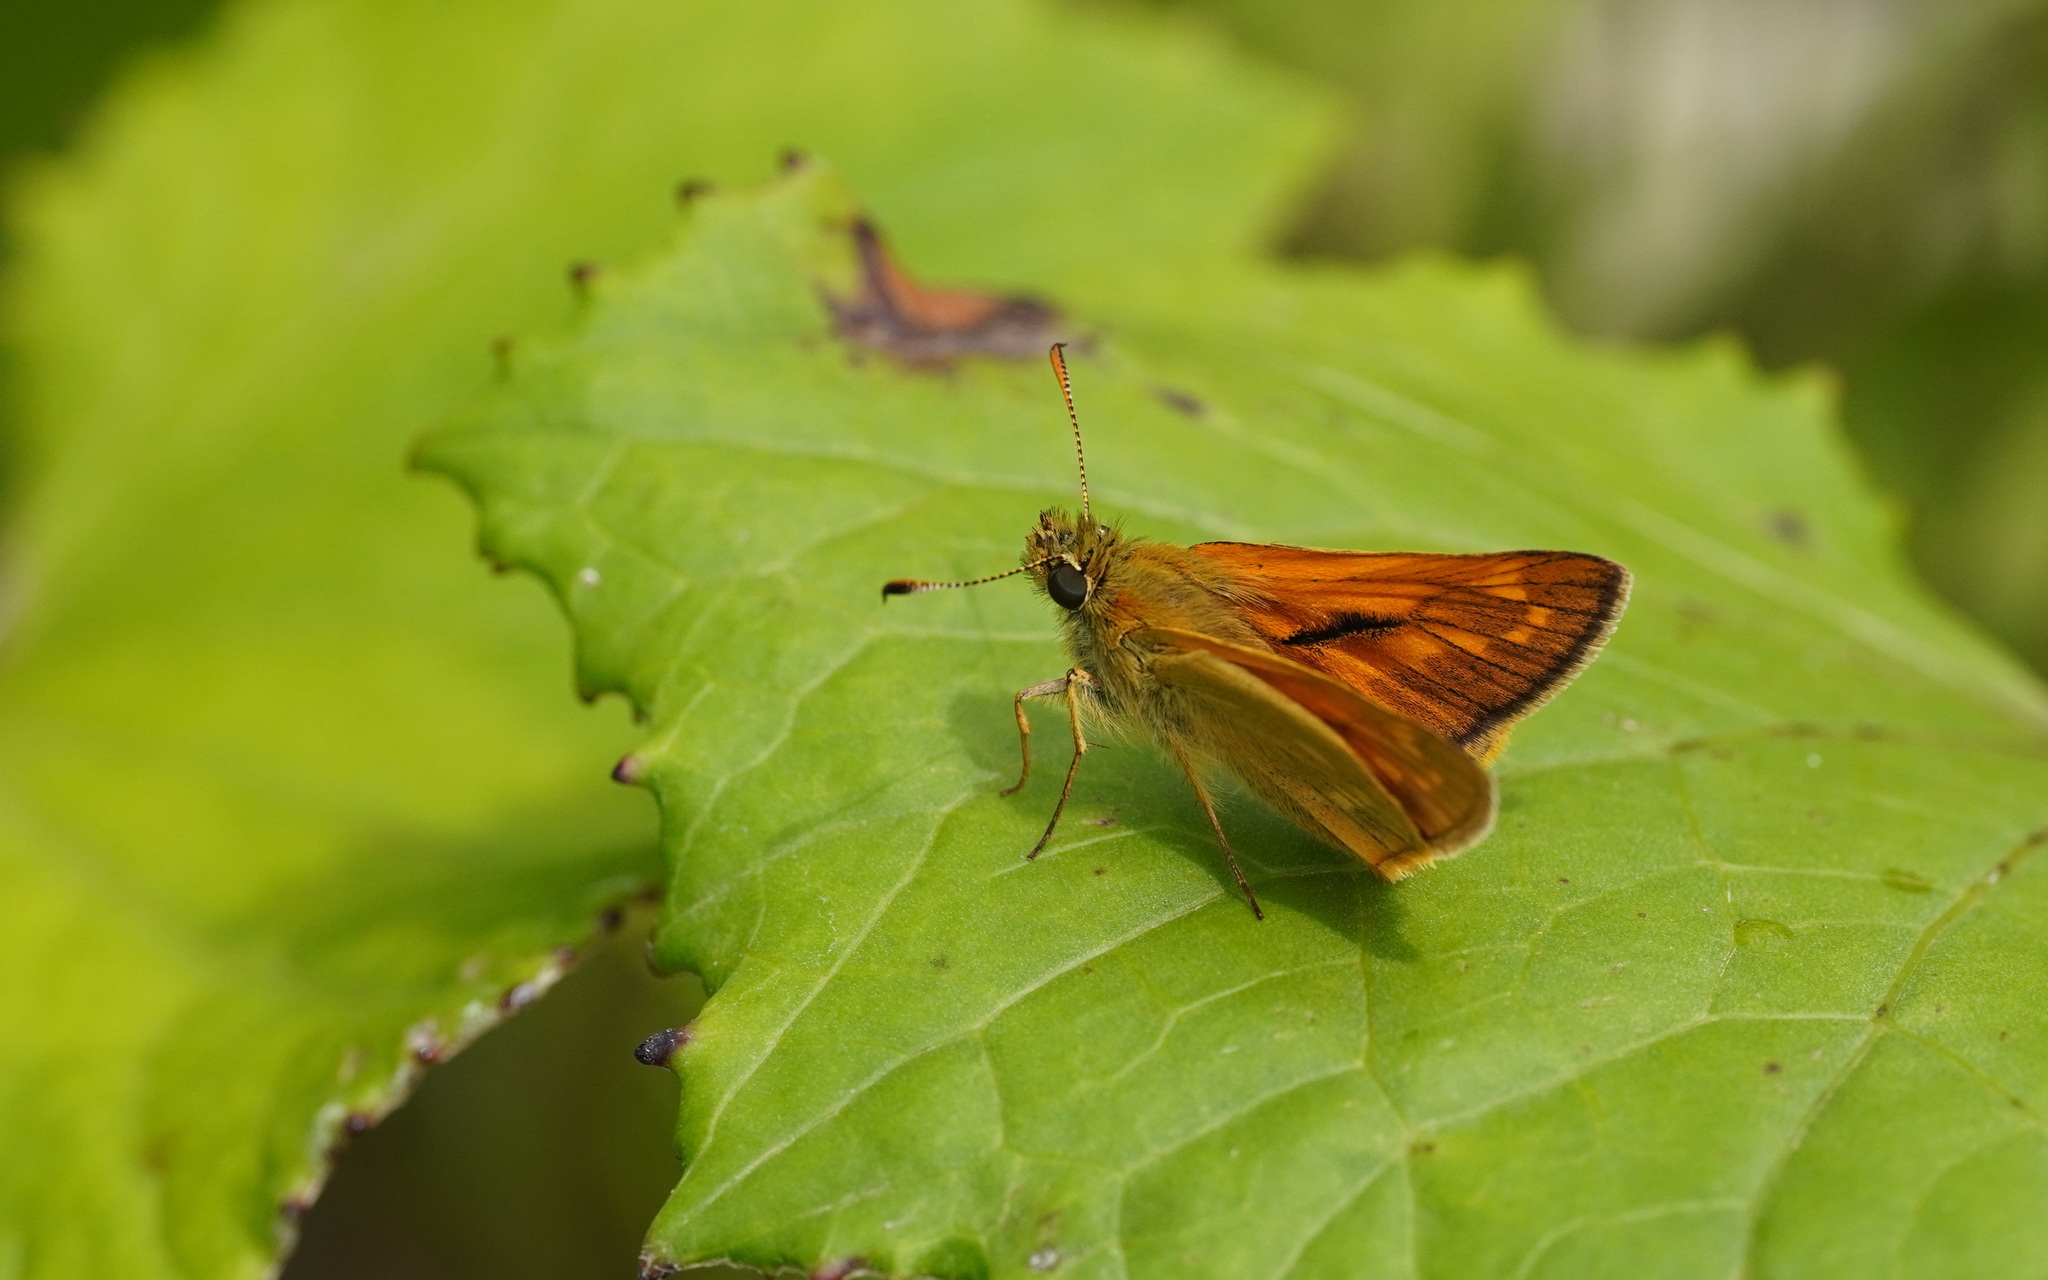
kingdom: Animalia
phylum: Arthropoda
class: Insecta
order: Lepidoptera
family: Hesperiidae
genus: Ochlodes
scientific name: Ochlodes venata
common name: Large skipper
